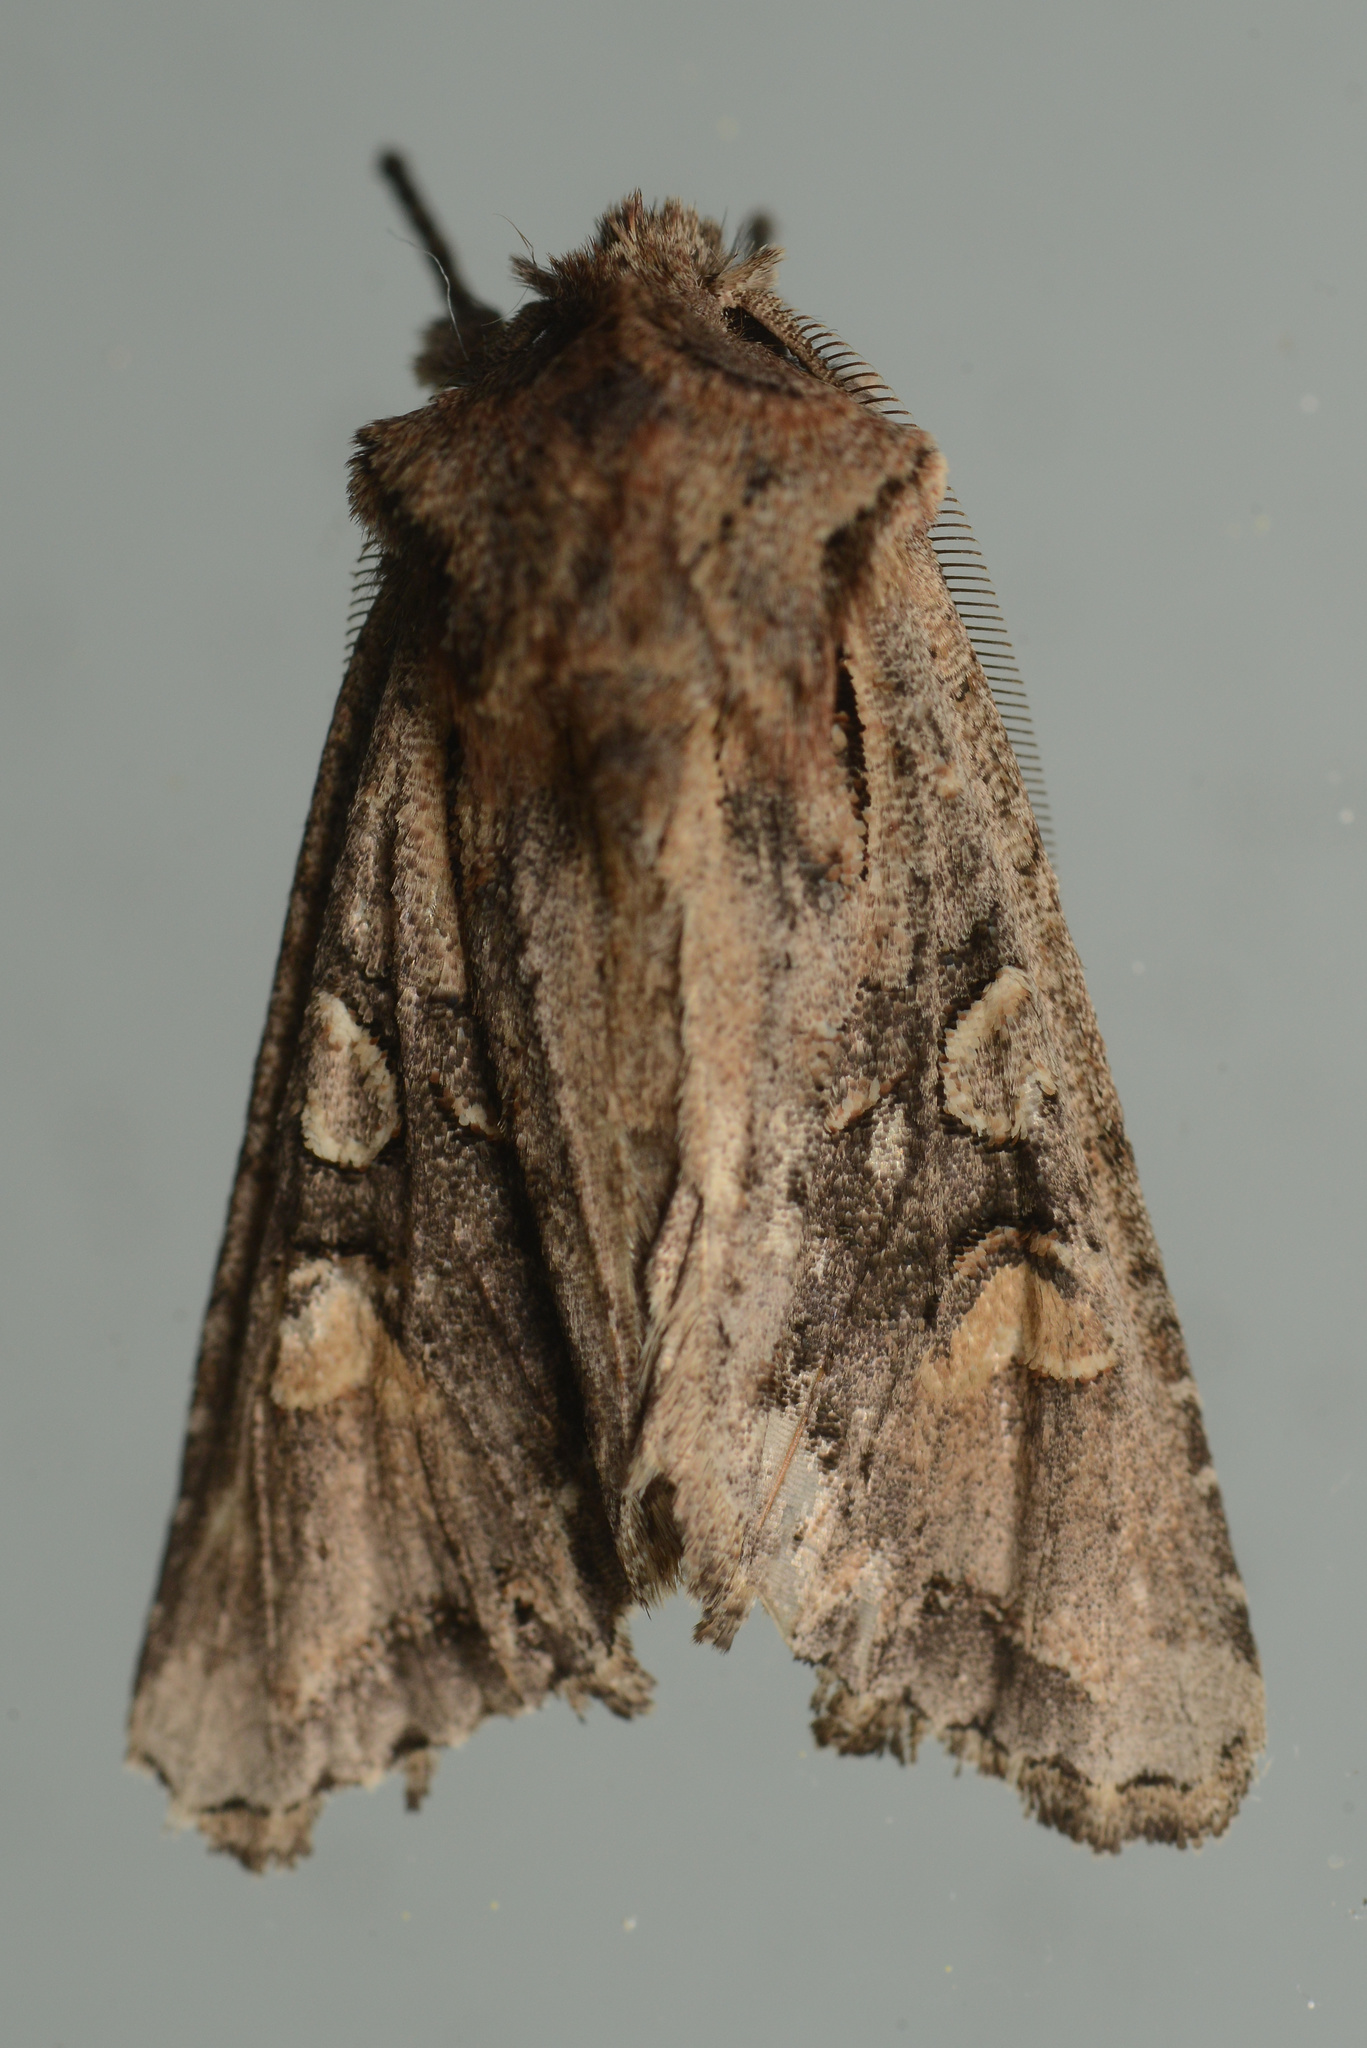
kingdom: Animalia
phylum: Arthropoda
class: Insecta
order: Lepidoptera
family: Noctuidae
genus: Ichneutica
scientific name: Ichneutica
